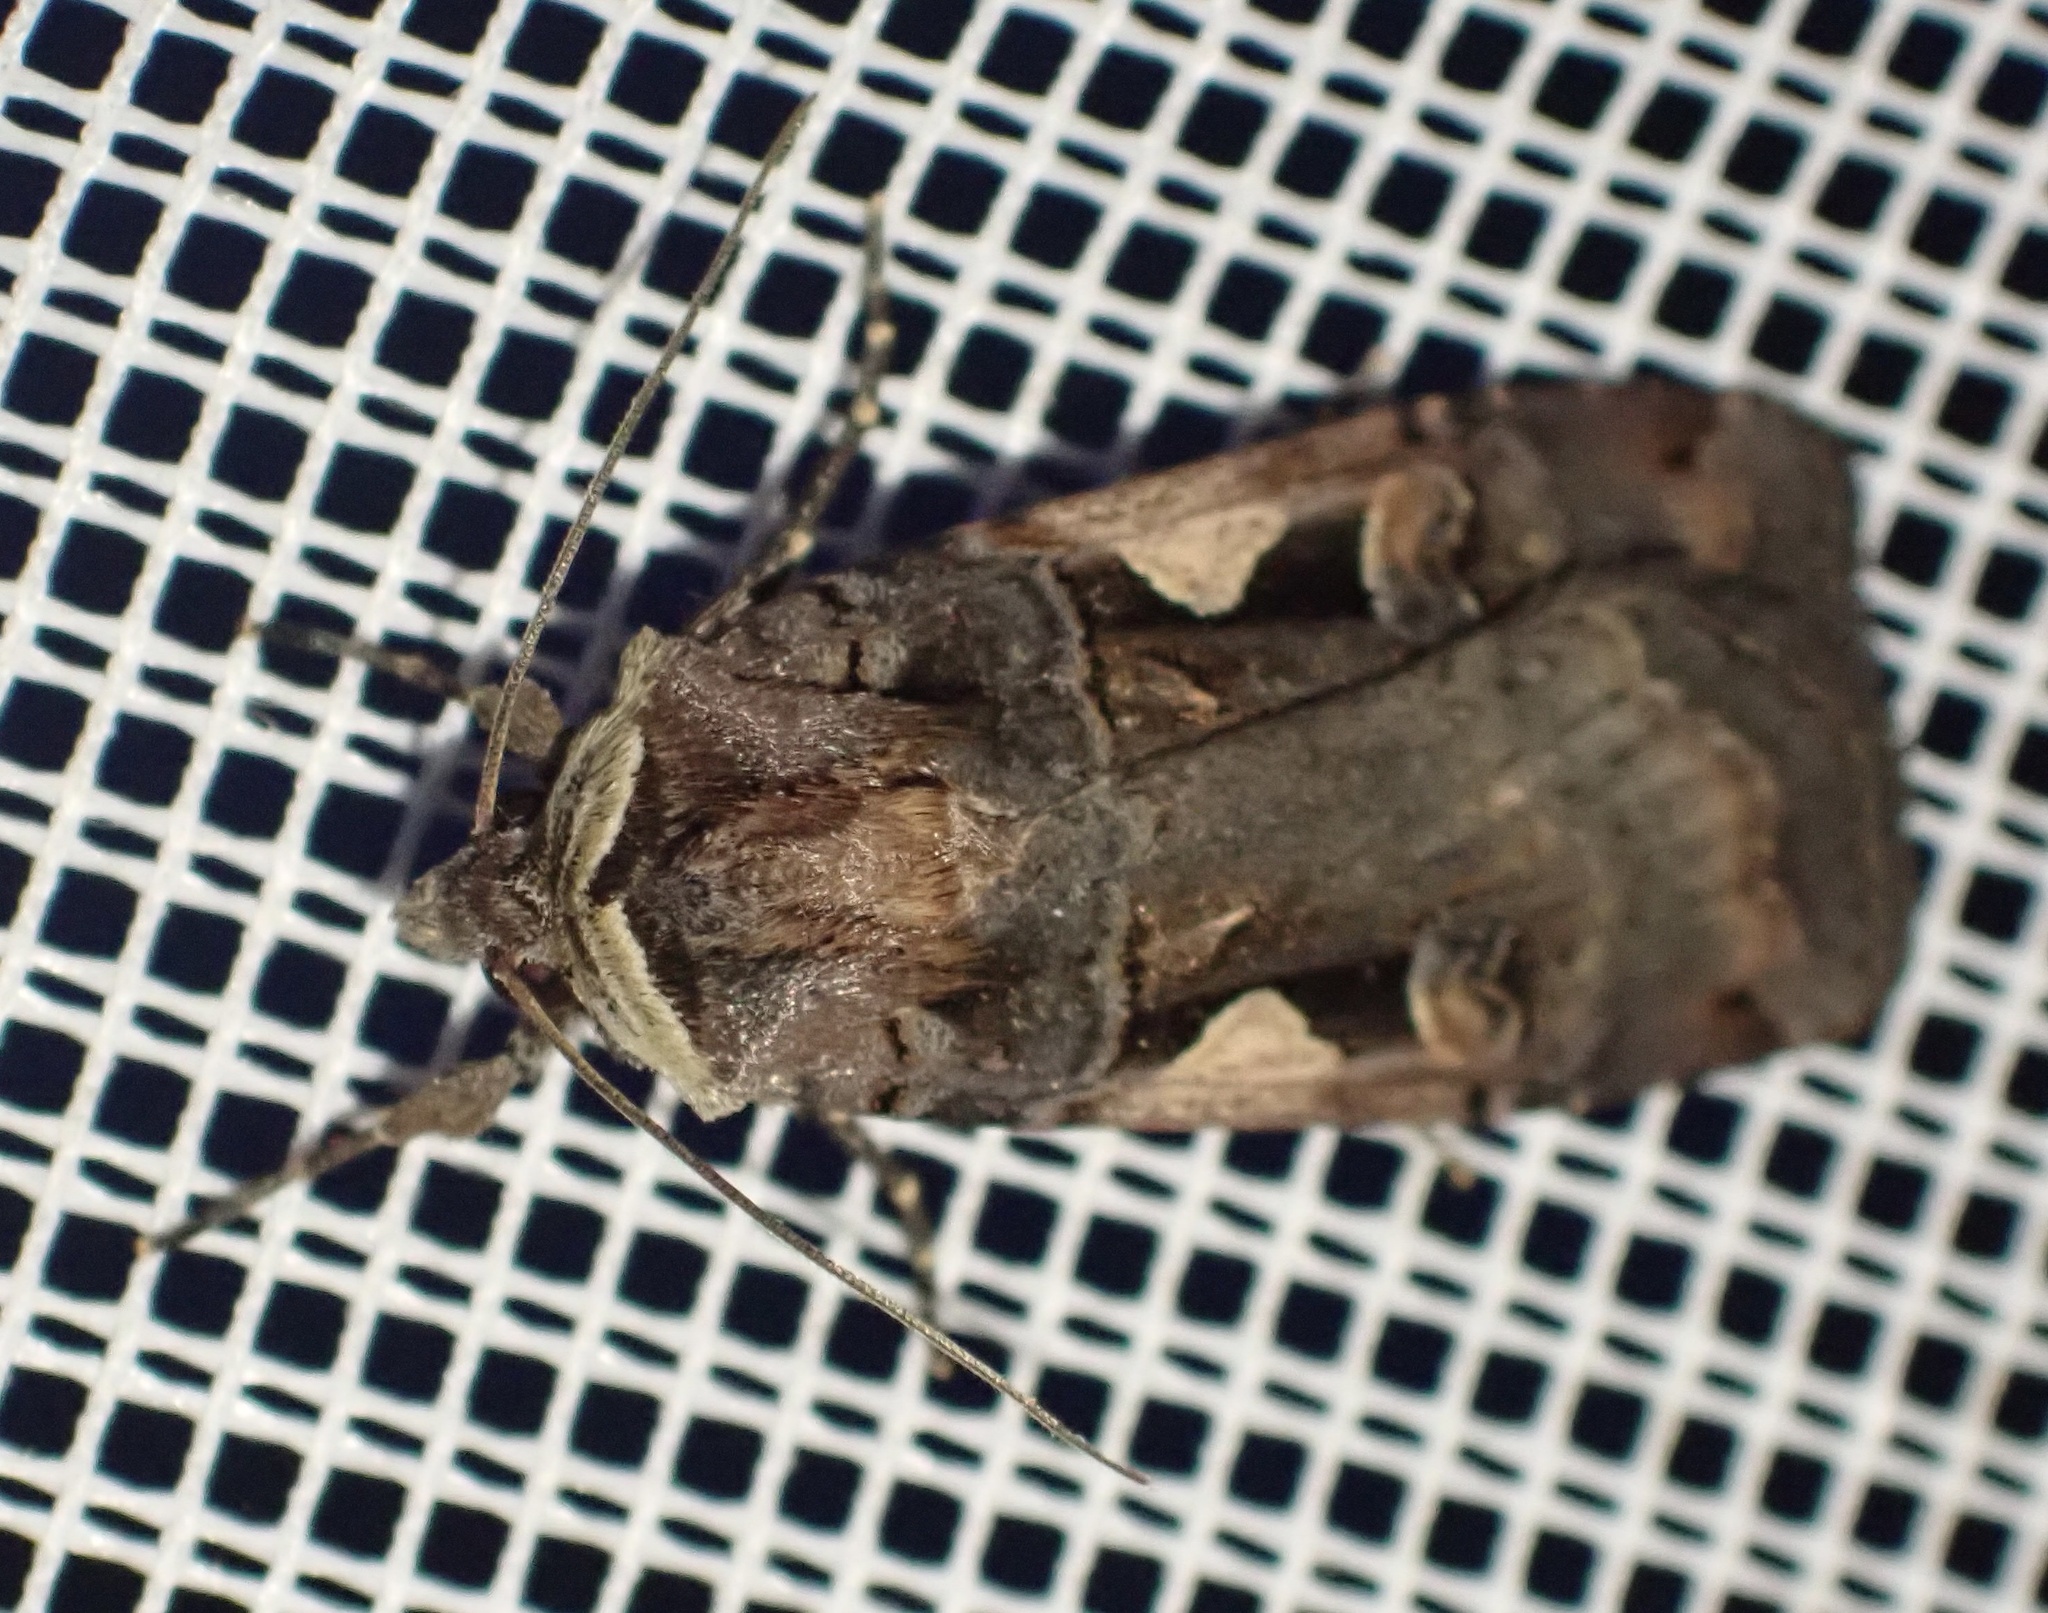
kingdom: Animalia
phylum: Arthropoda
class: Insecta
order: Lepidoptera
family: Noctuidae
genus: Xestia
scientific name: Xestia c-nigrum
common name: Setaceous hebrew character
